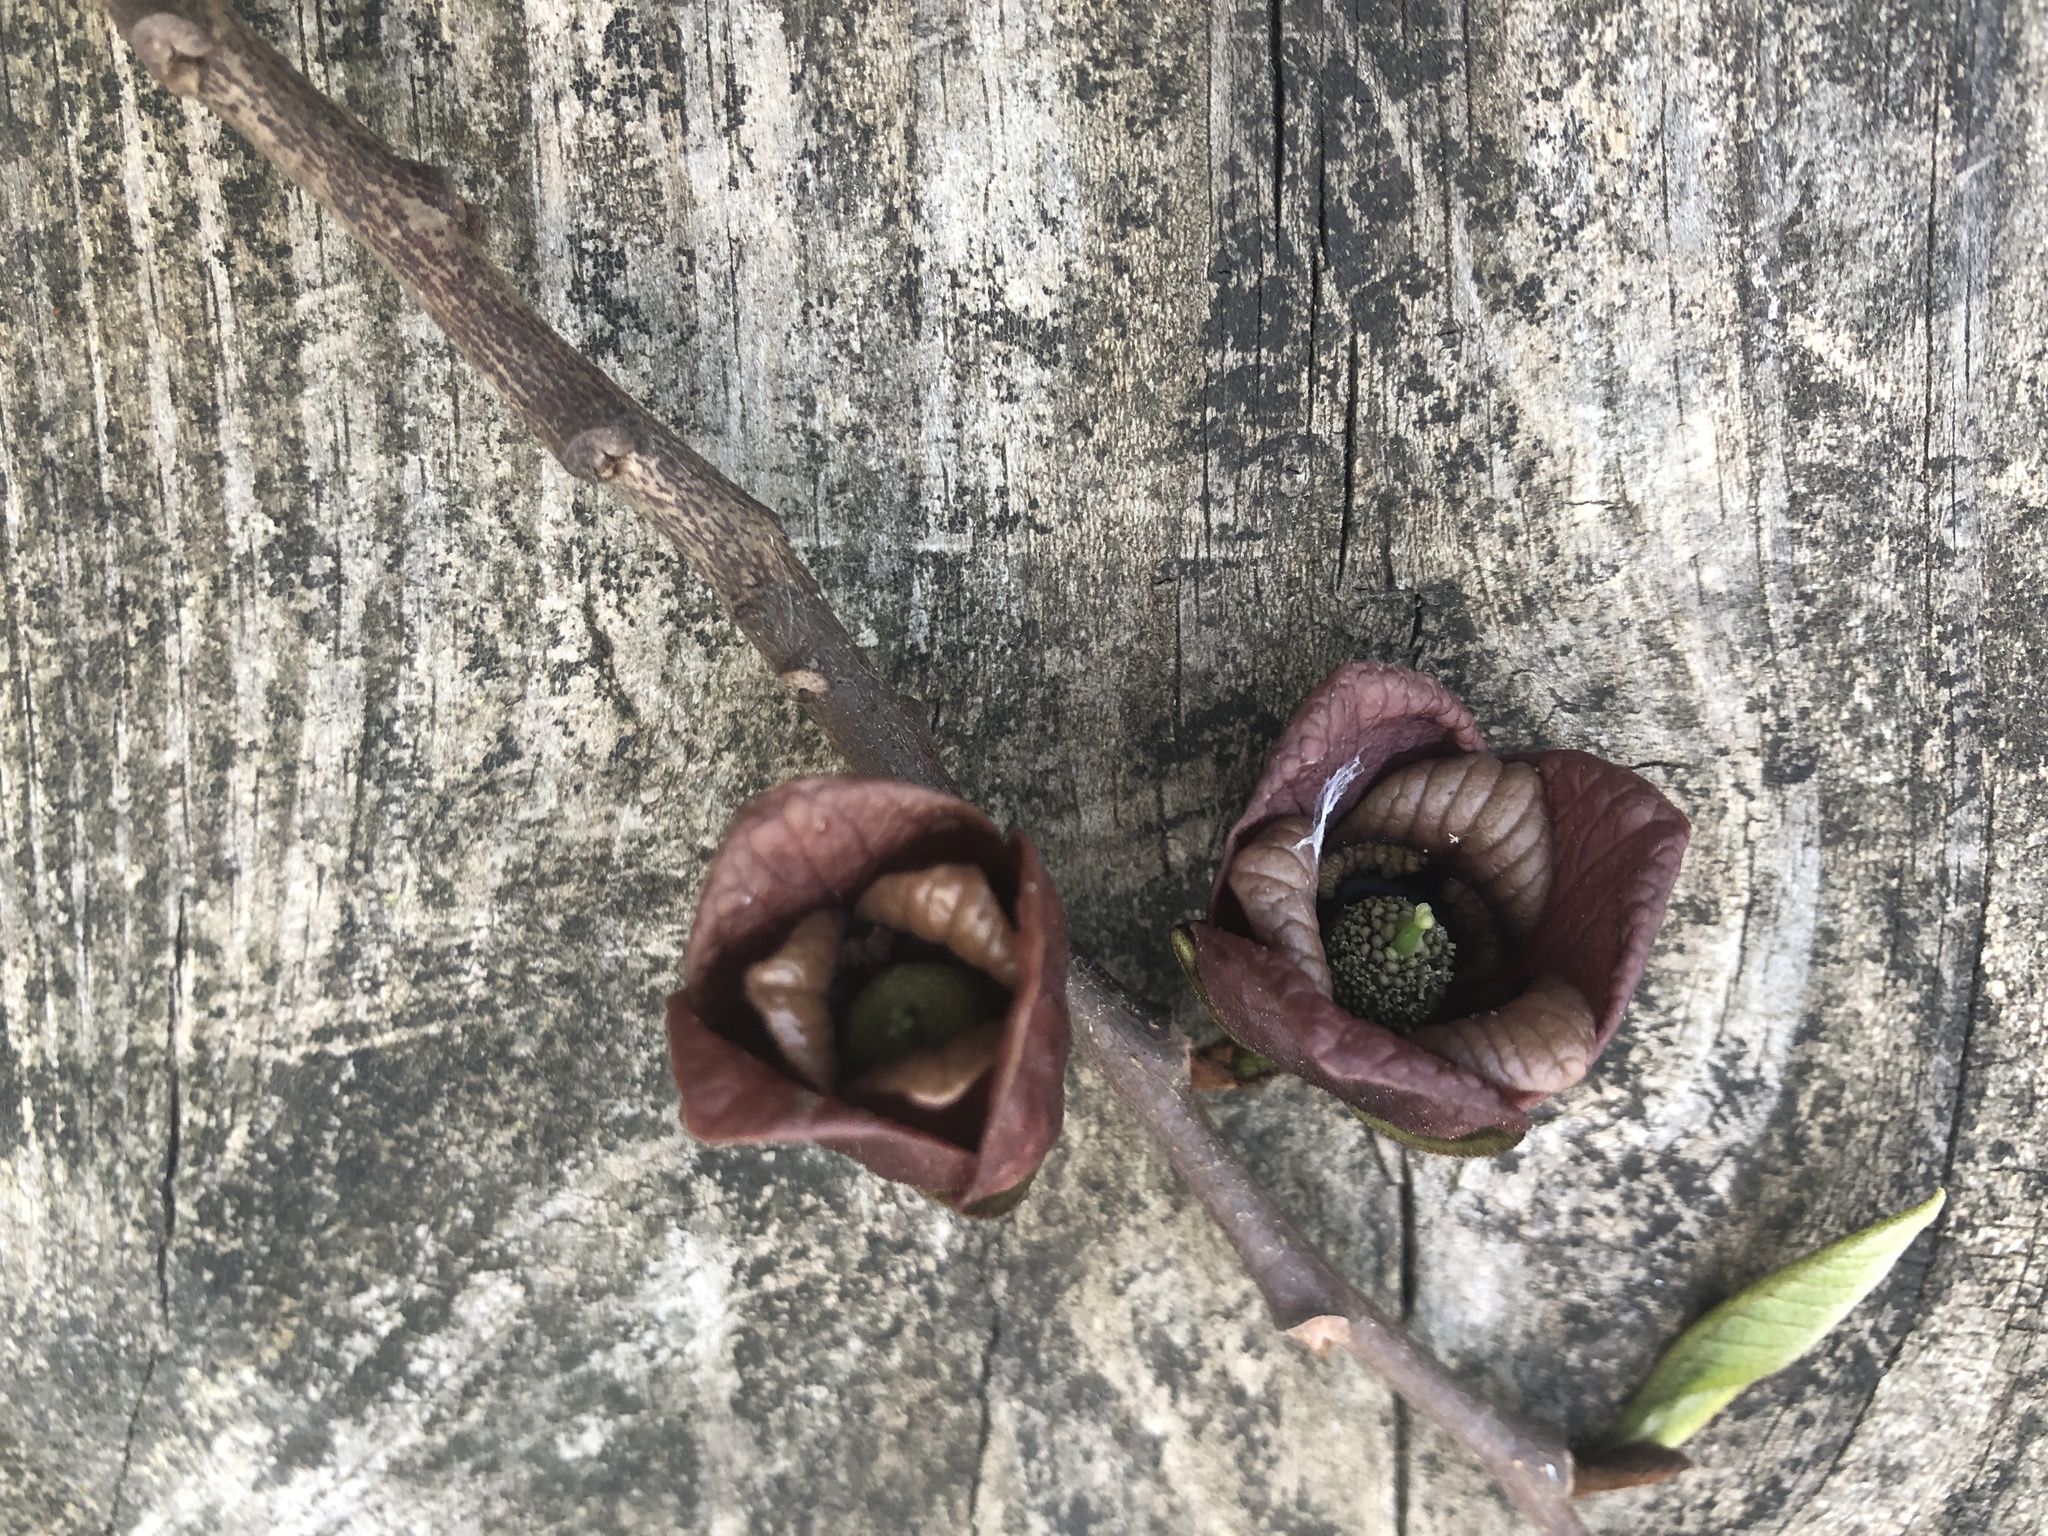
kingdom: Plantae
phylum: Tracheophyta
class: Magnoliopsida
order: Magnoliales
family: Annonaceae
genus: Asimina
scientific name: Asimina triloba
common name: Dog-banana
